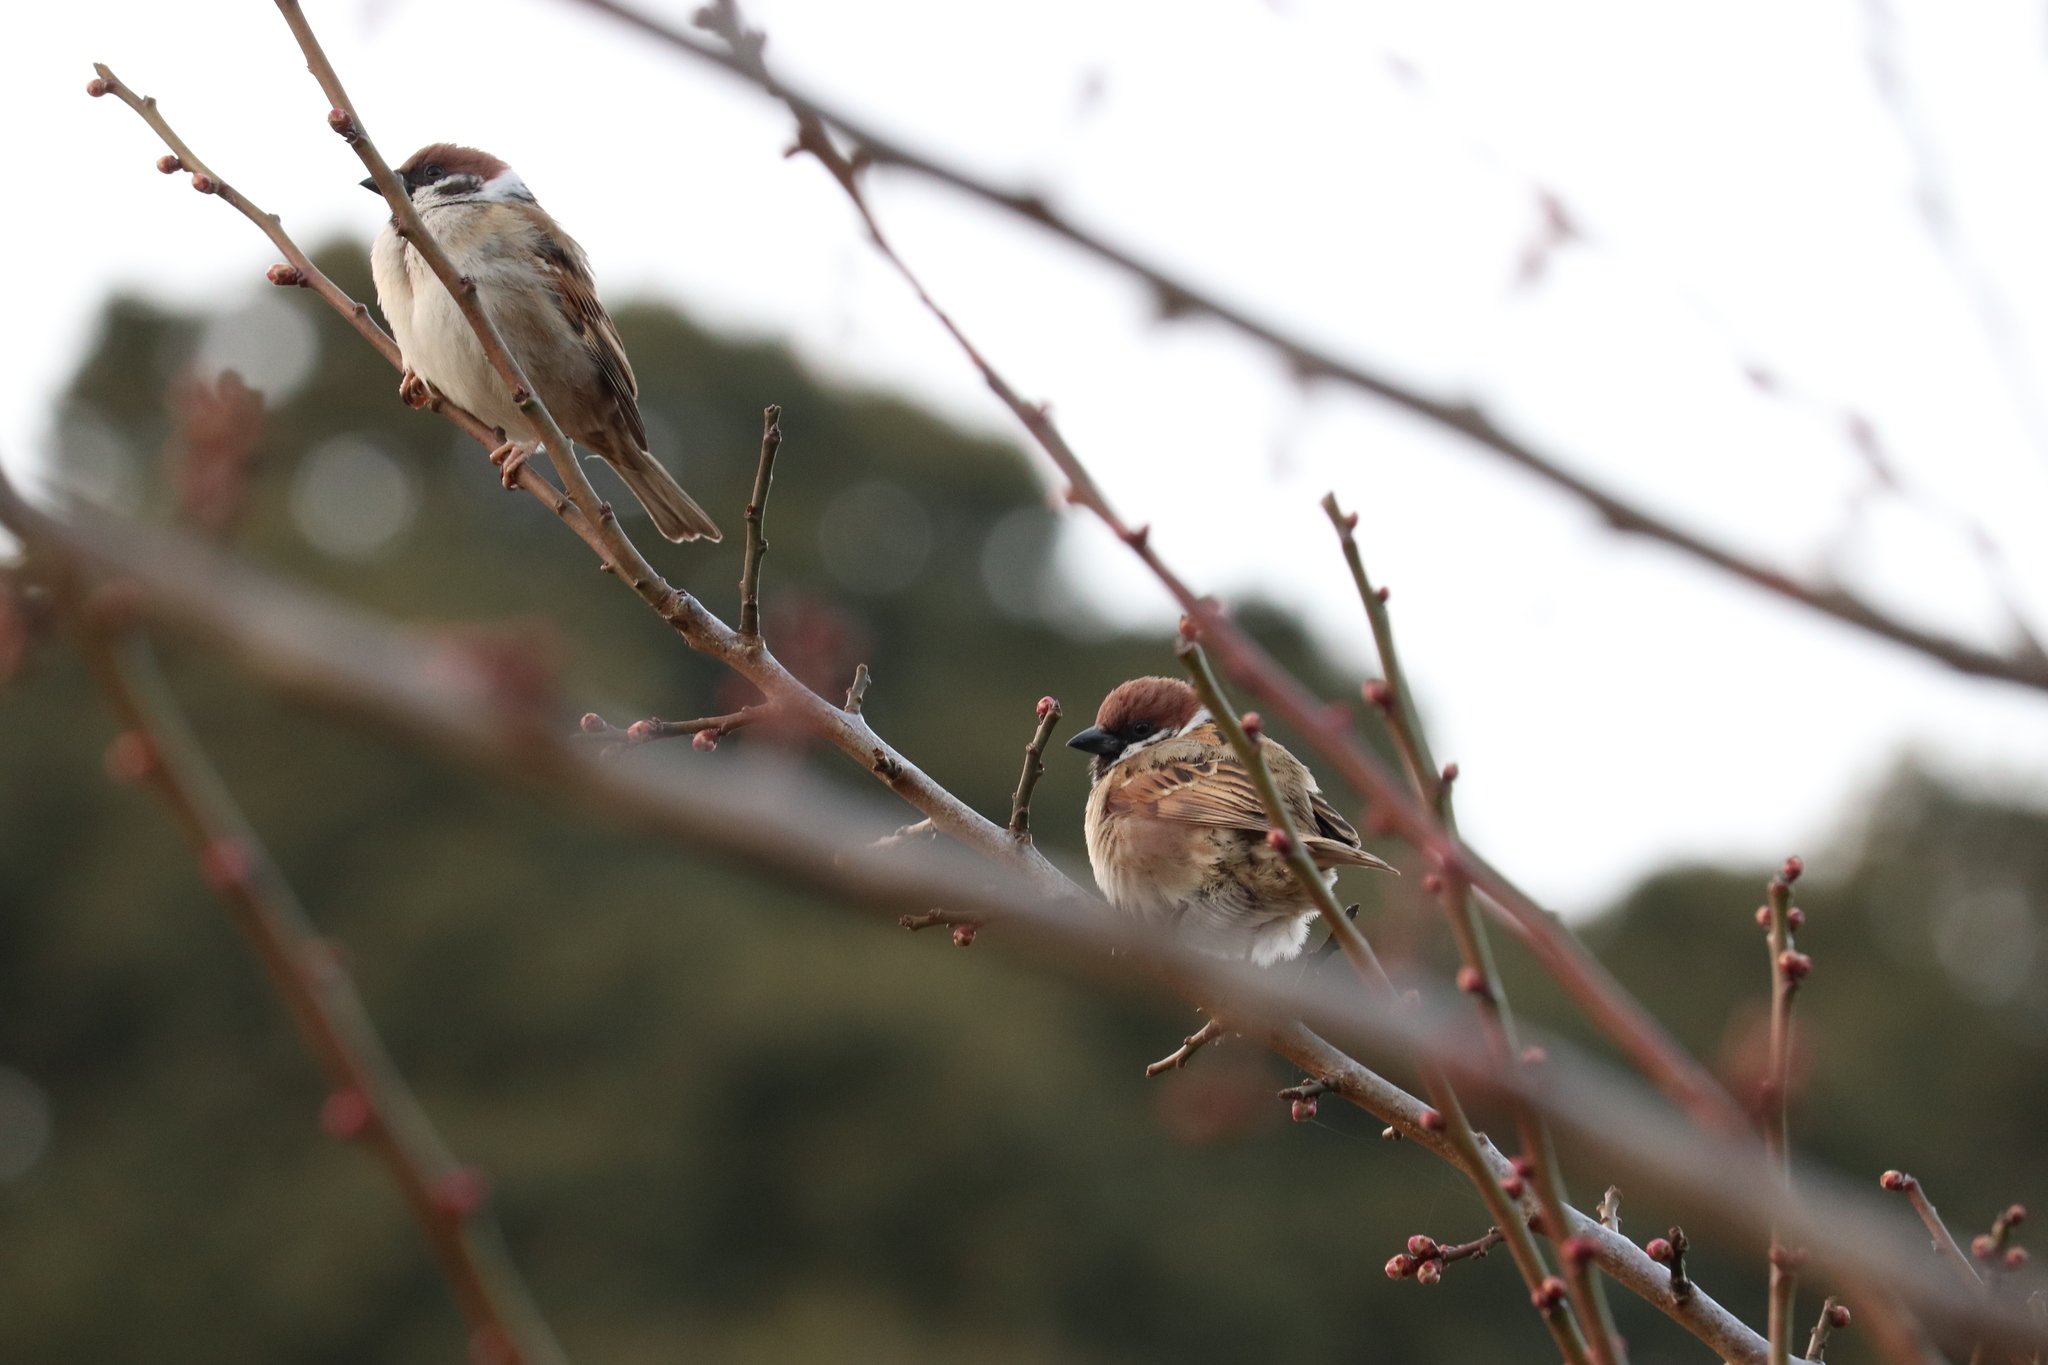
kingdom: Animalia
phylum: Chordata
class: Aves
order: Passeriformes
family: Passeridae
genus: Passer
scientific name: Passer montanus
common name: Eurasian tree sparrow
